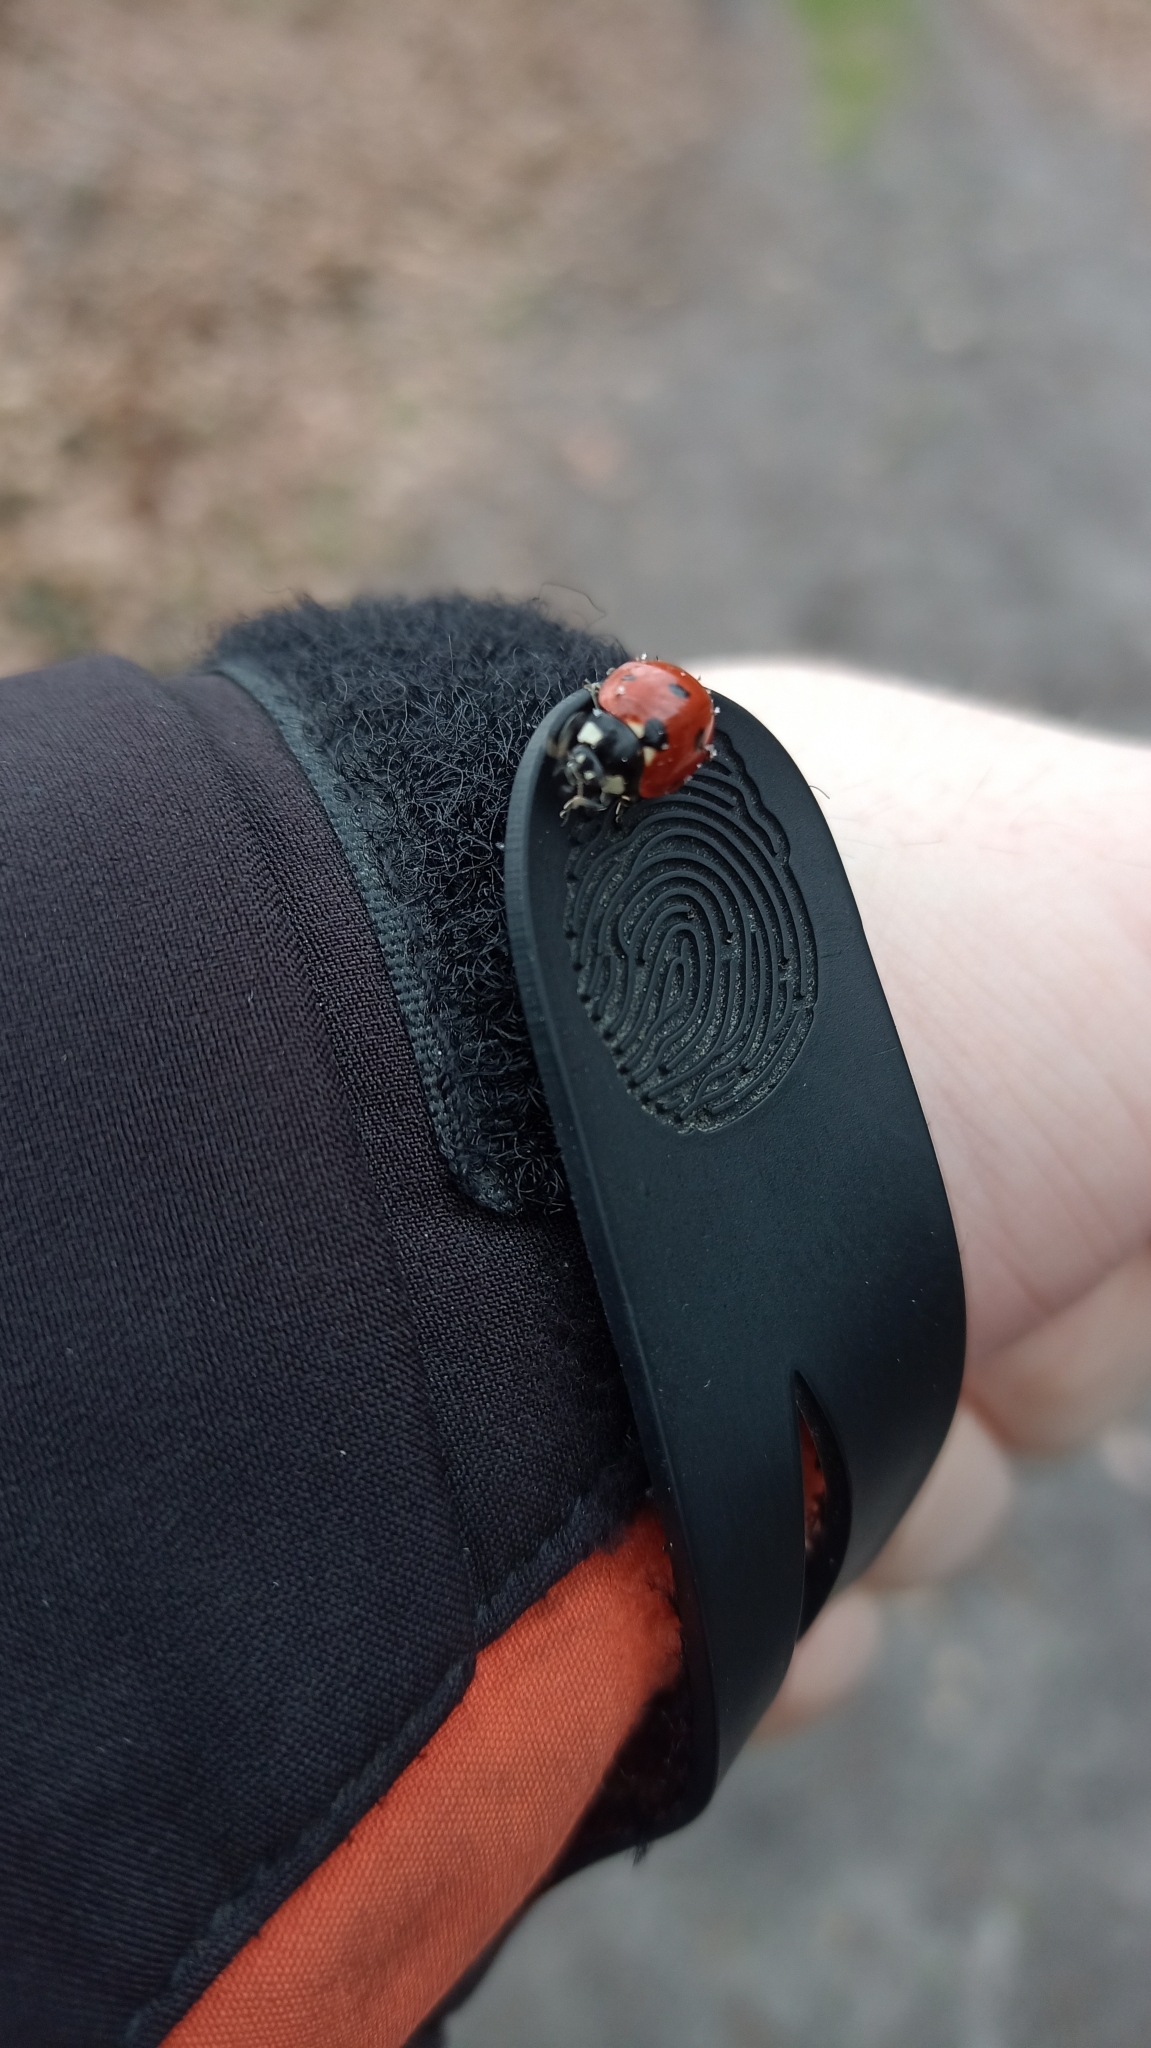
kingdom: Animalia
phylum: Arthropoda
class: Insecta
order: Coleoptera
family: Coccinellidae
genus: Coccinella
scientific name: Coccinella septempunctata
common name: Sevenspotted lady beetle
